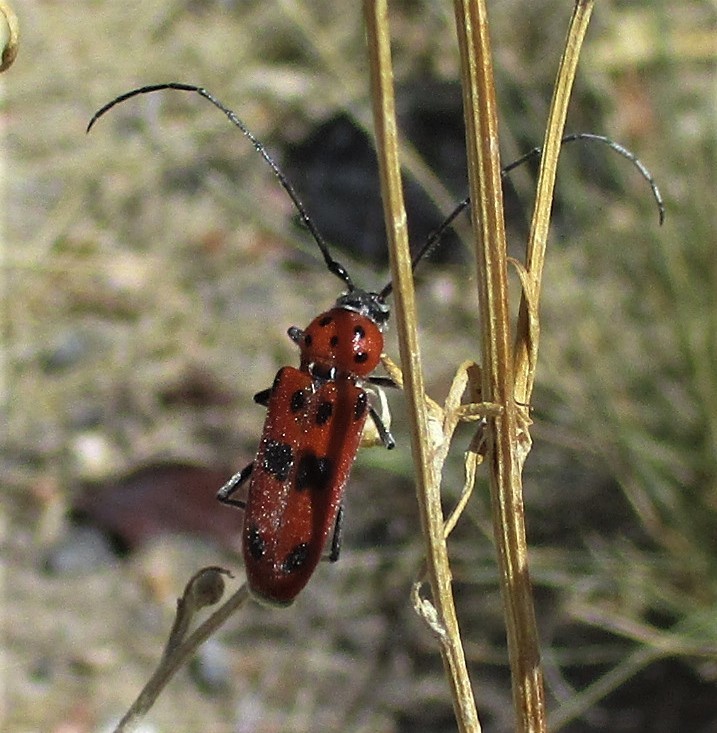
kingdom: Animalia
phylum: Arthropoda
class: Insecta
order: Coleoptera
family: Cerambycidae
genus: Tylosis
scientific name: Tylosis maculatus
